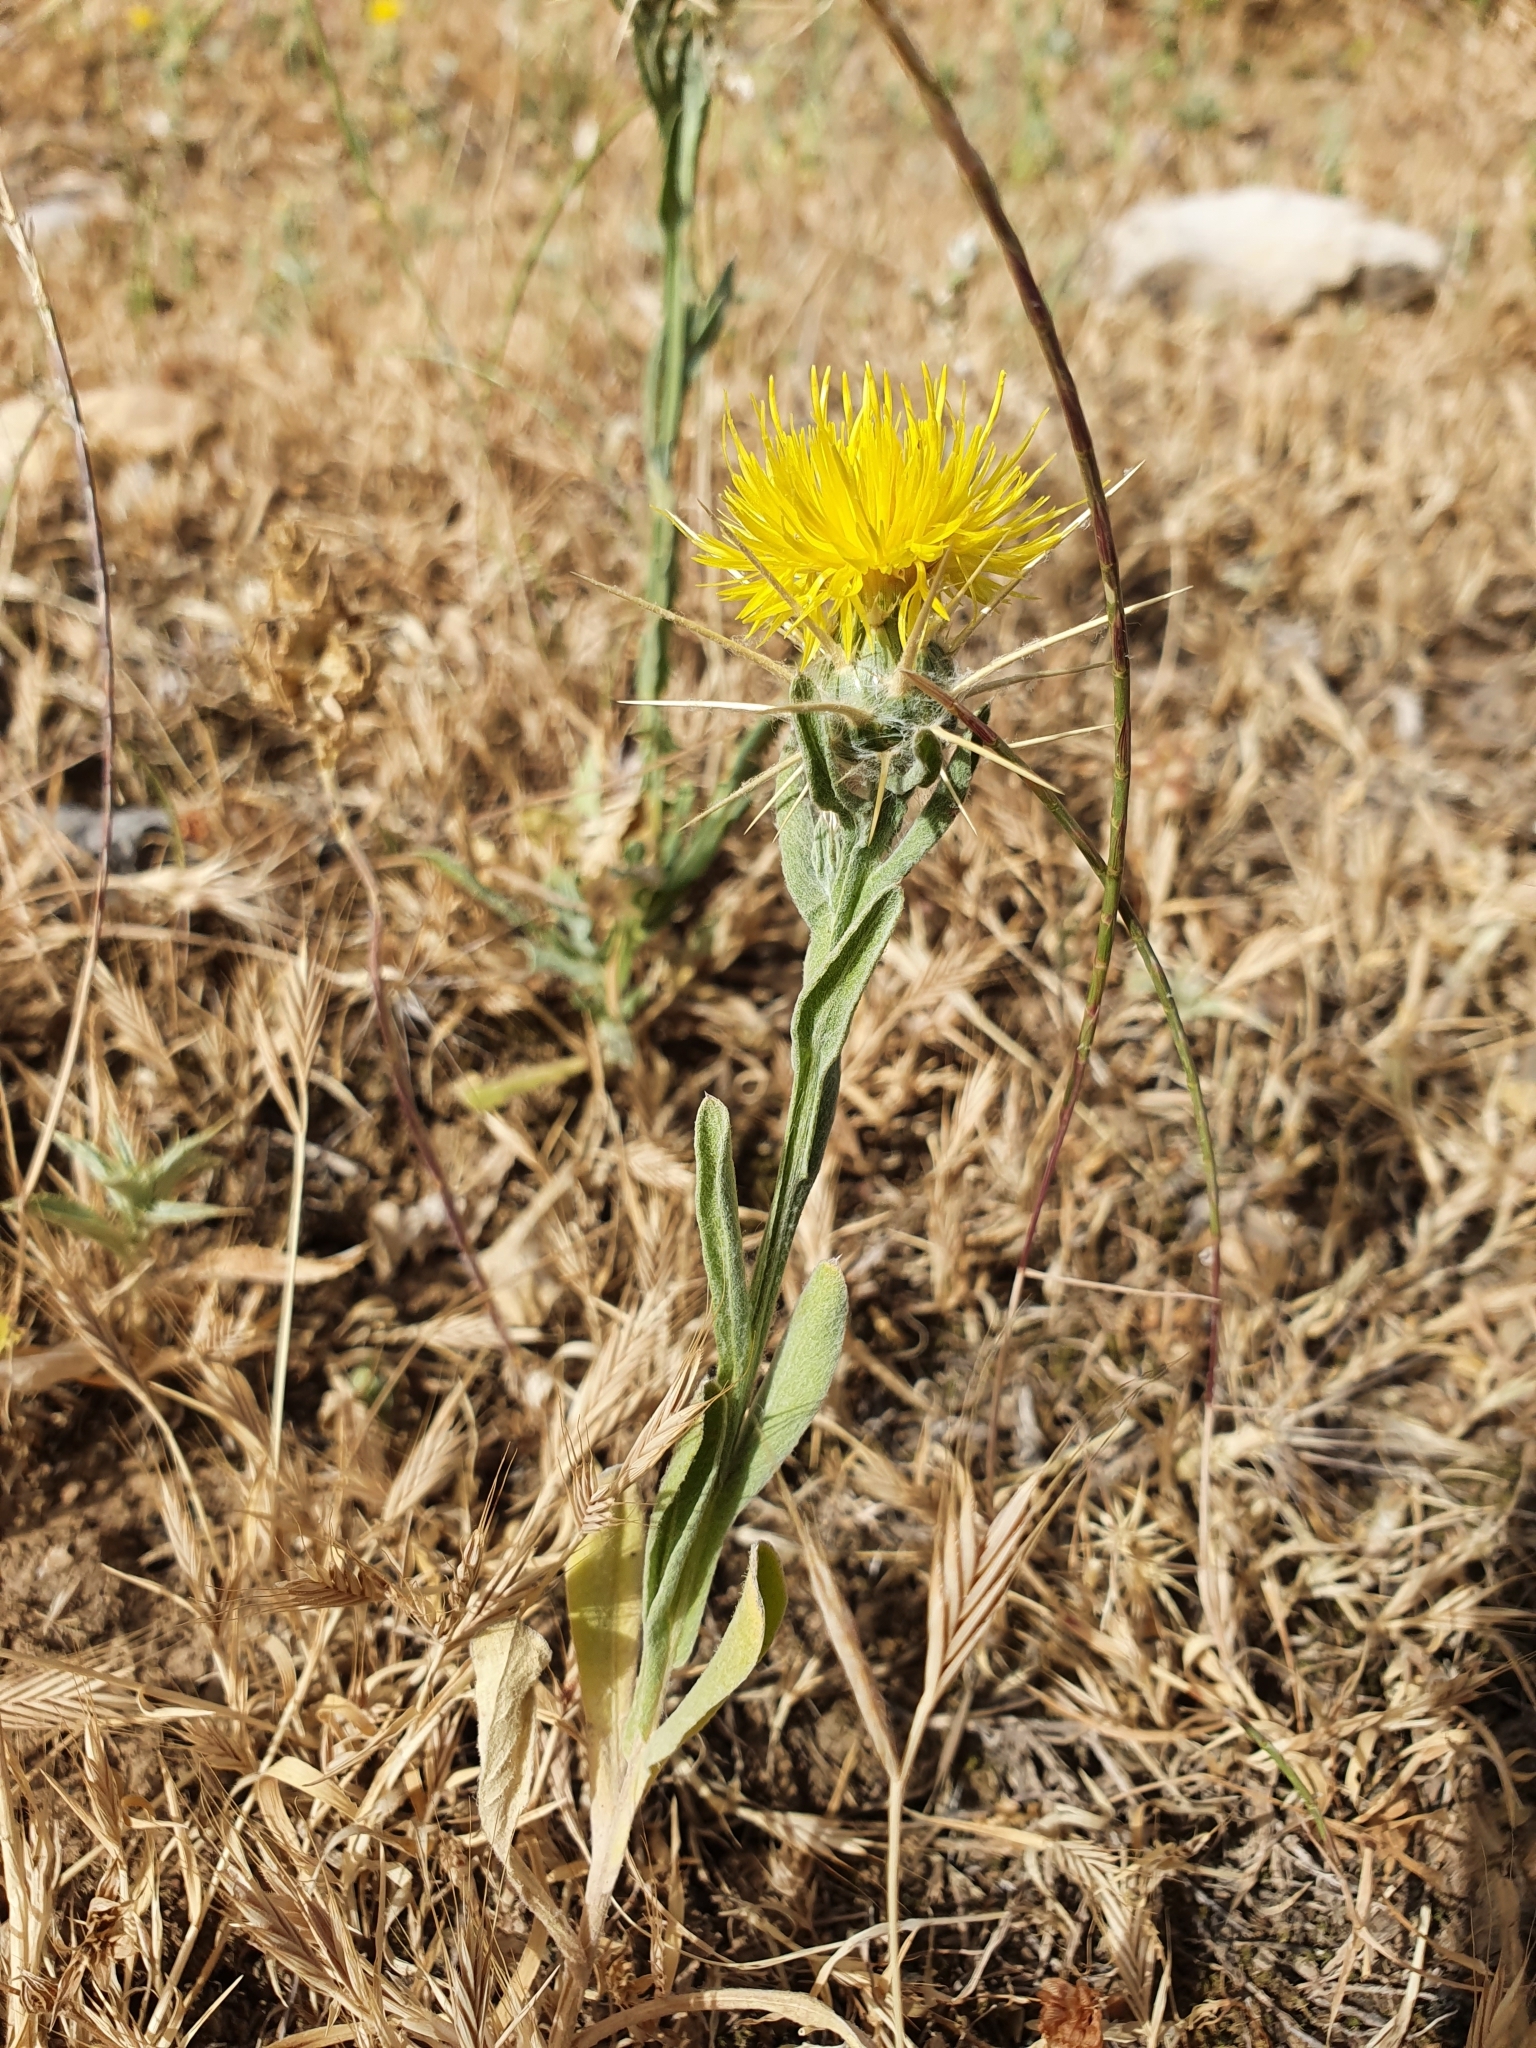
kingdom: Plantae
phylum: Tracheophyta
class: Magnoliopsida
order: Asterales
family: Asteraceae
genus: Centaurea
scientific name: Centaurea solstitialis
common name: Yellow star-thistle
